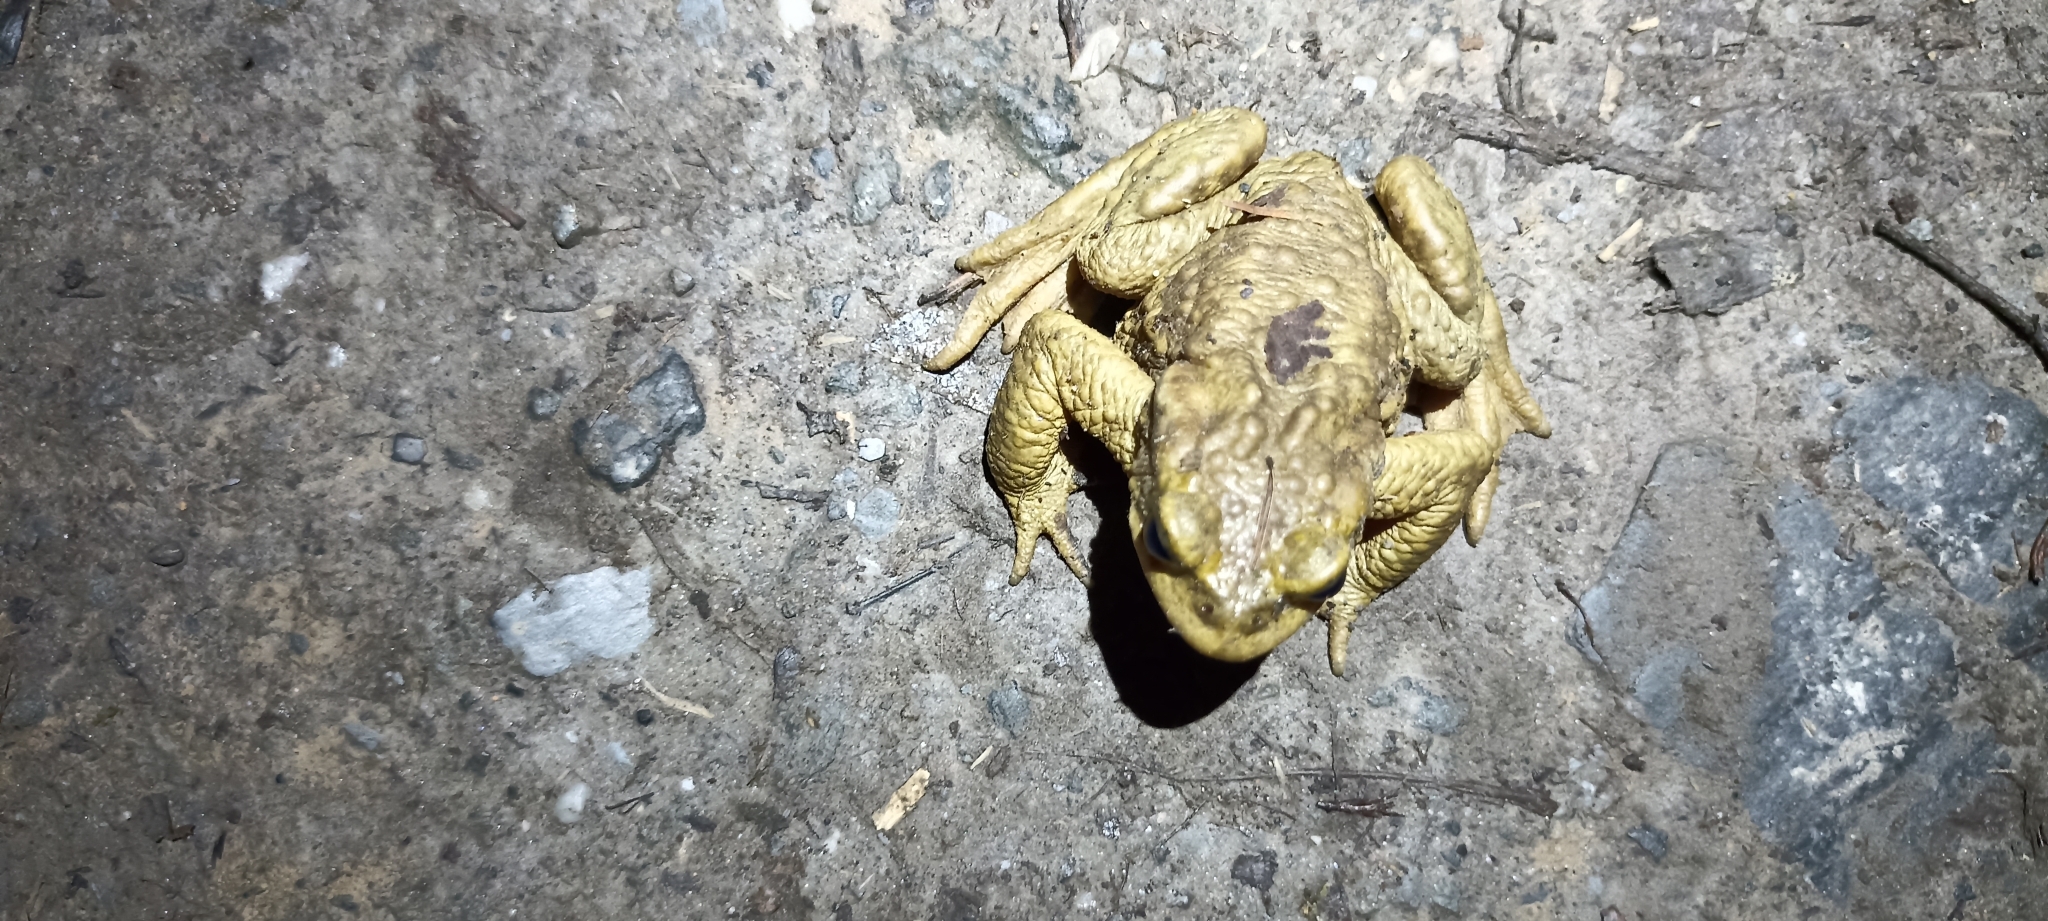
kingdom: Animalia
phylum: Chordata
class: Amphibia
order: Anura
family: Bufonidae
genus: Bufo
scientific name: Bufo spinosus
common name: Western common toad
